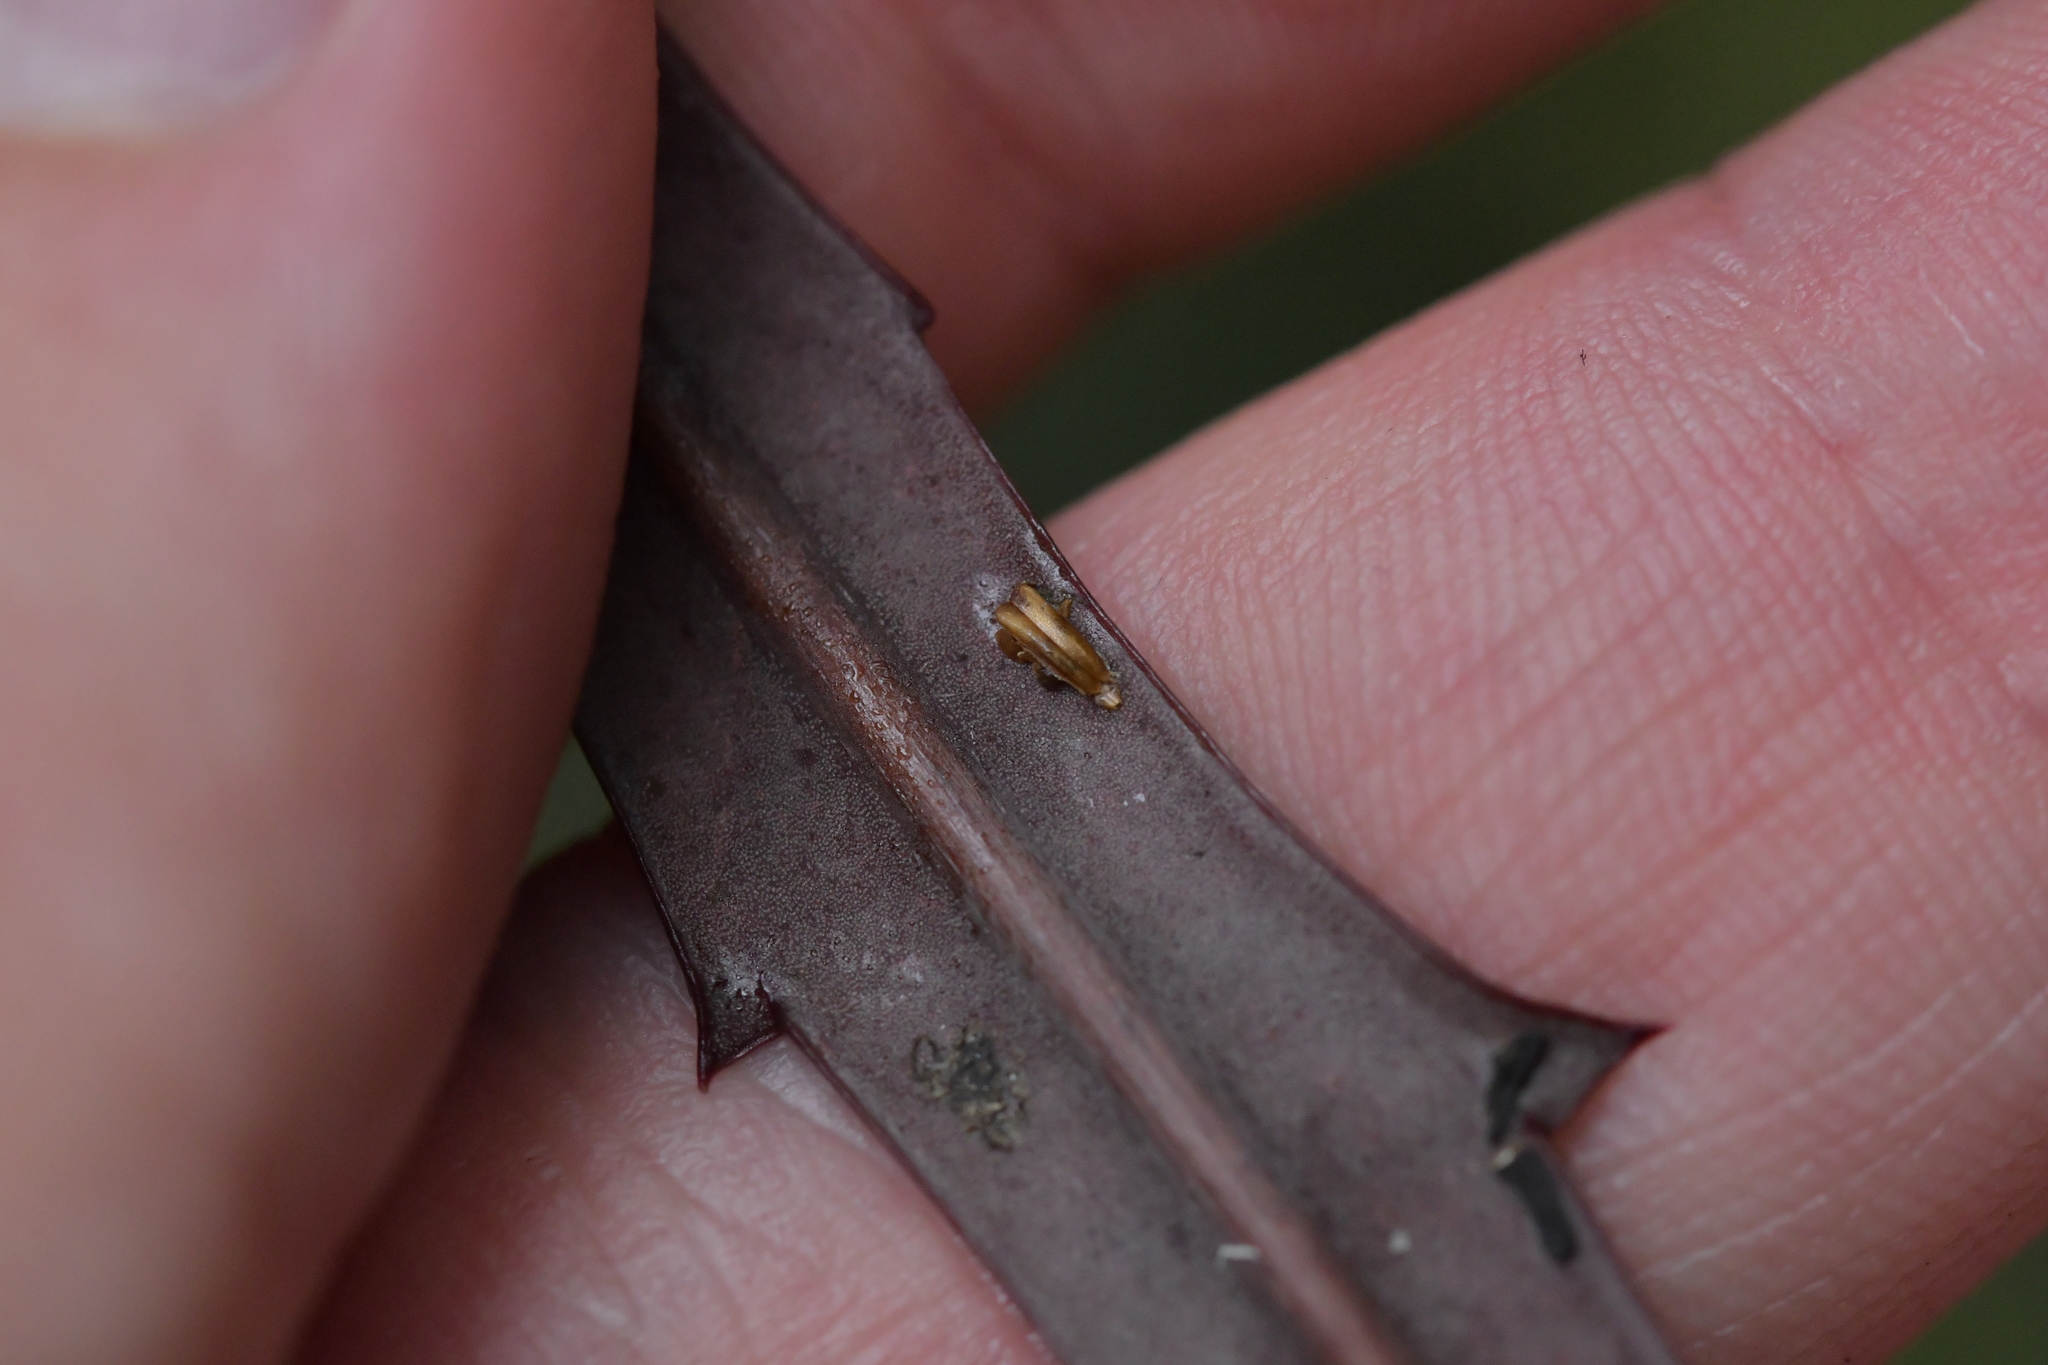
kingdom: Plantae
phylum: Tracheophyta
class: Magnoliopsida
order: Apiales
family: Araliaceae
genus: Pseudopanax
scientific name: Pseudopanax crassifolius
